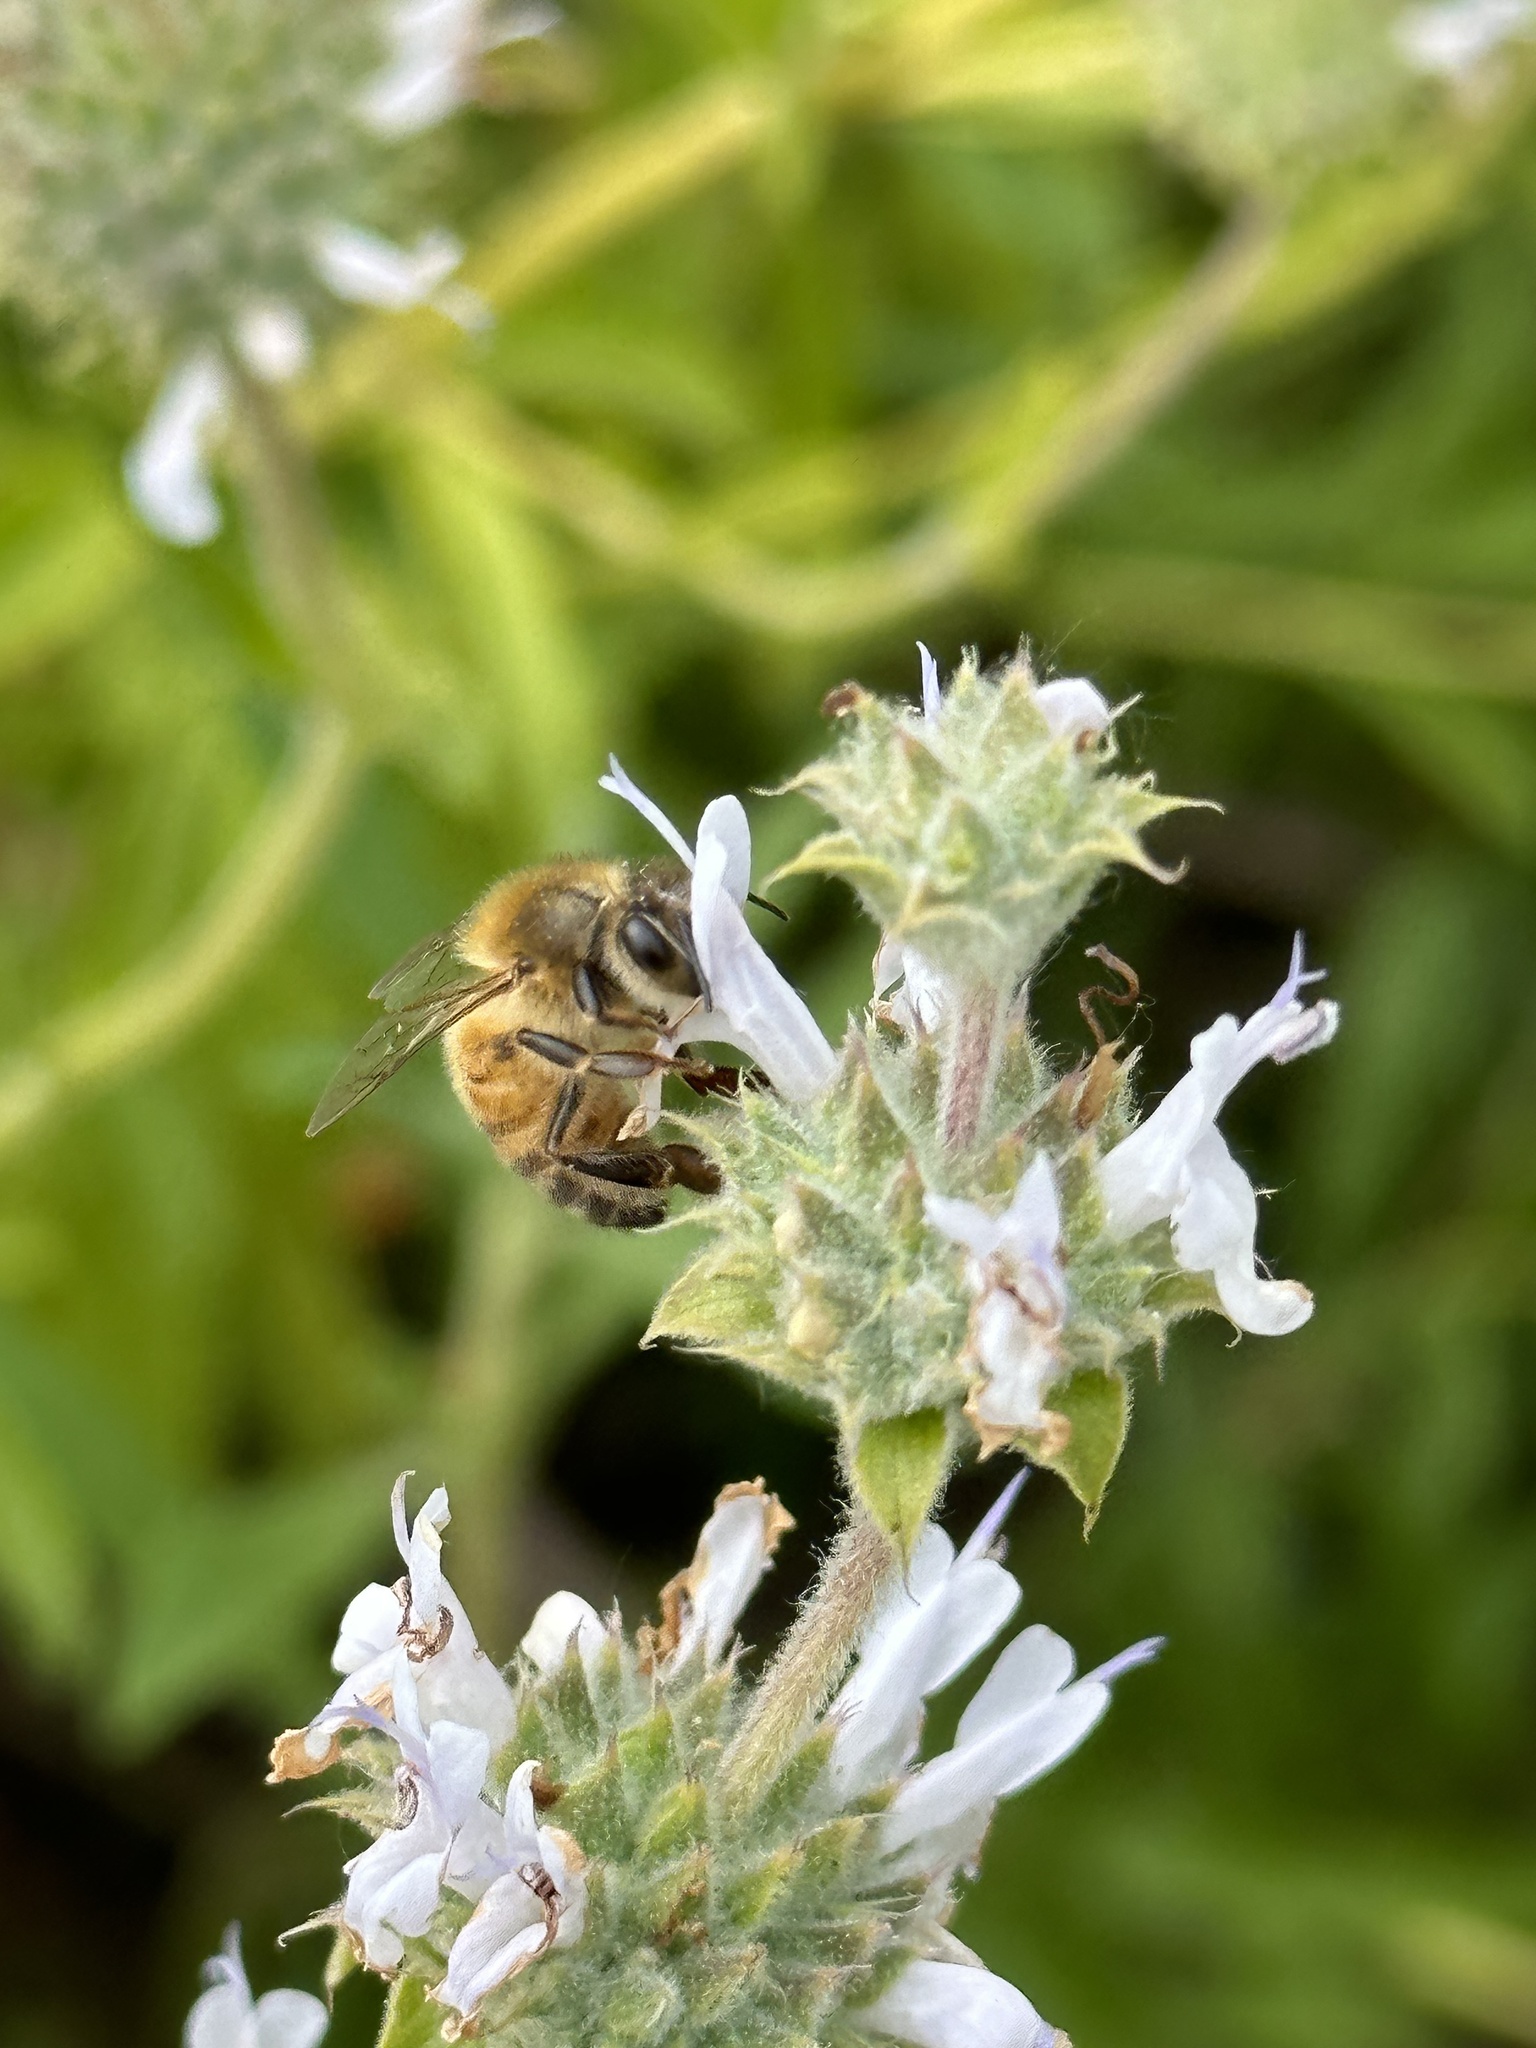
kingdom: Animalia
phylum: Arthropoda
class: Insecta
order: Hymenoptera
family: Apidae
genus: Apis
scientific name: Apis mellifera
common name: Honey bee
